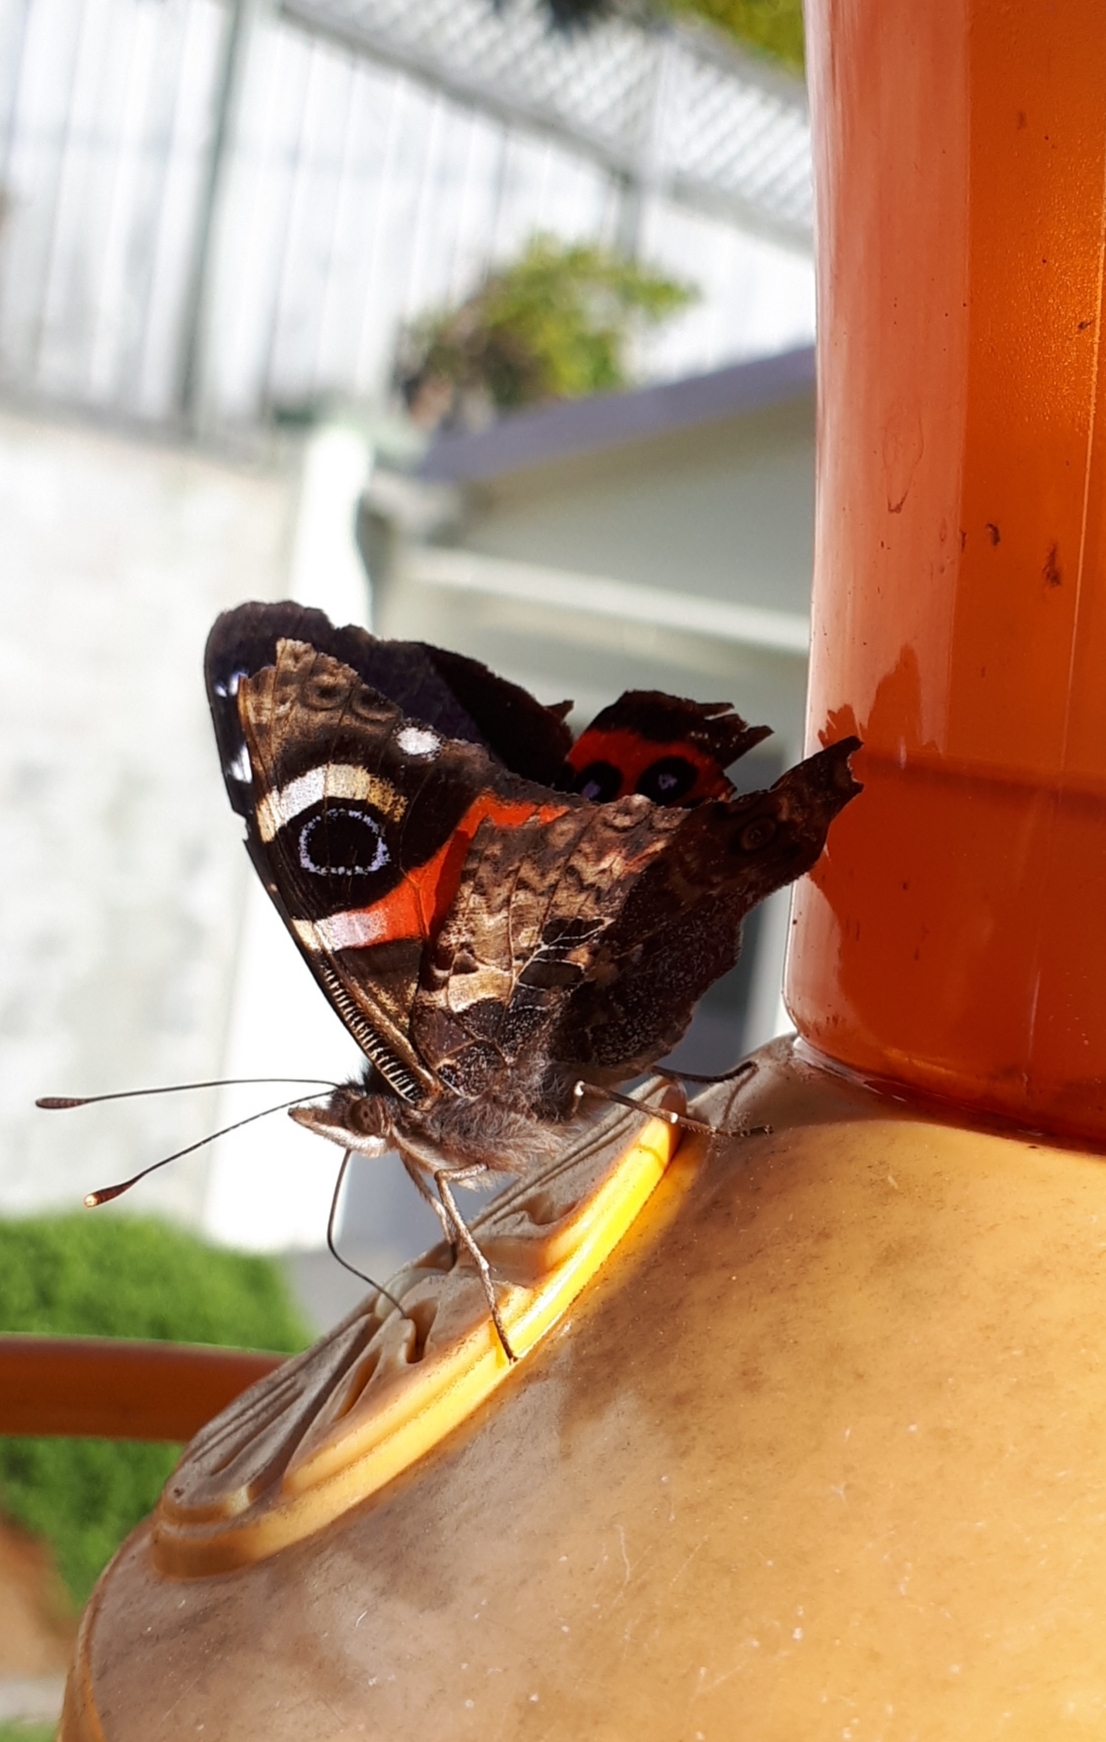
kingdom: Animalia
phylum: Arthropoda
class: Insecta
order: Lepidoptera
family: Nymphalidae
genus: Vanessa
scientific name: Vanessa gonerilla
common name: New zealand red admiral
